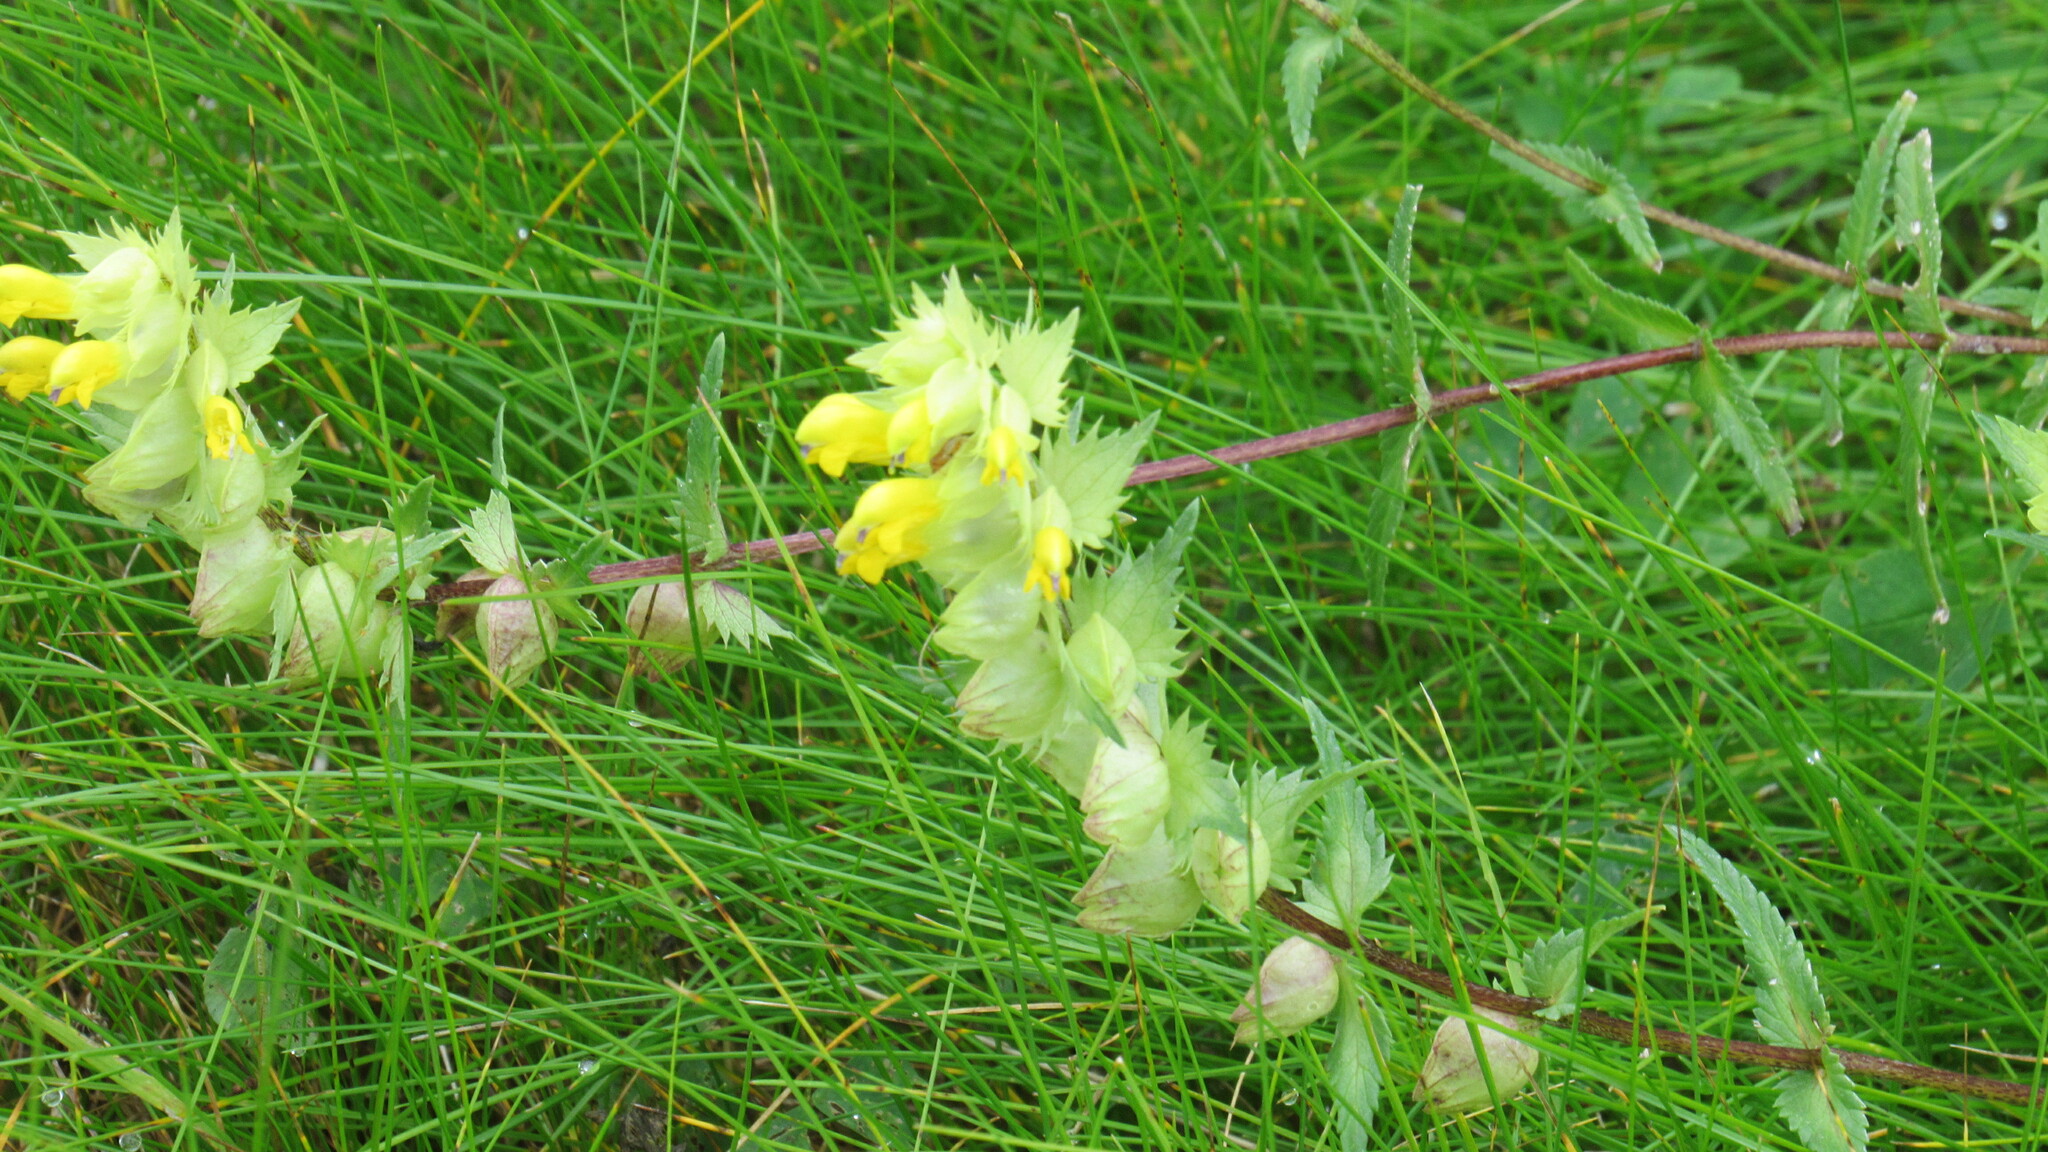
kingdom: Plantae
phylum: Tracheophyta
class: Magnoliopsida
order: Lamiales
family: Orobanchaceae
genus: Rhinanthus
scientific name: Rhinanthus serotinus
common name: Late-flowering yellow rattle
